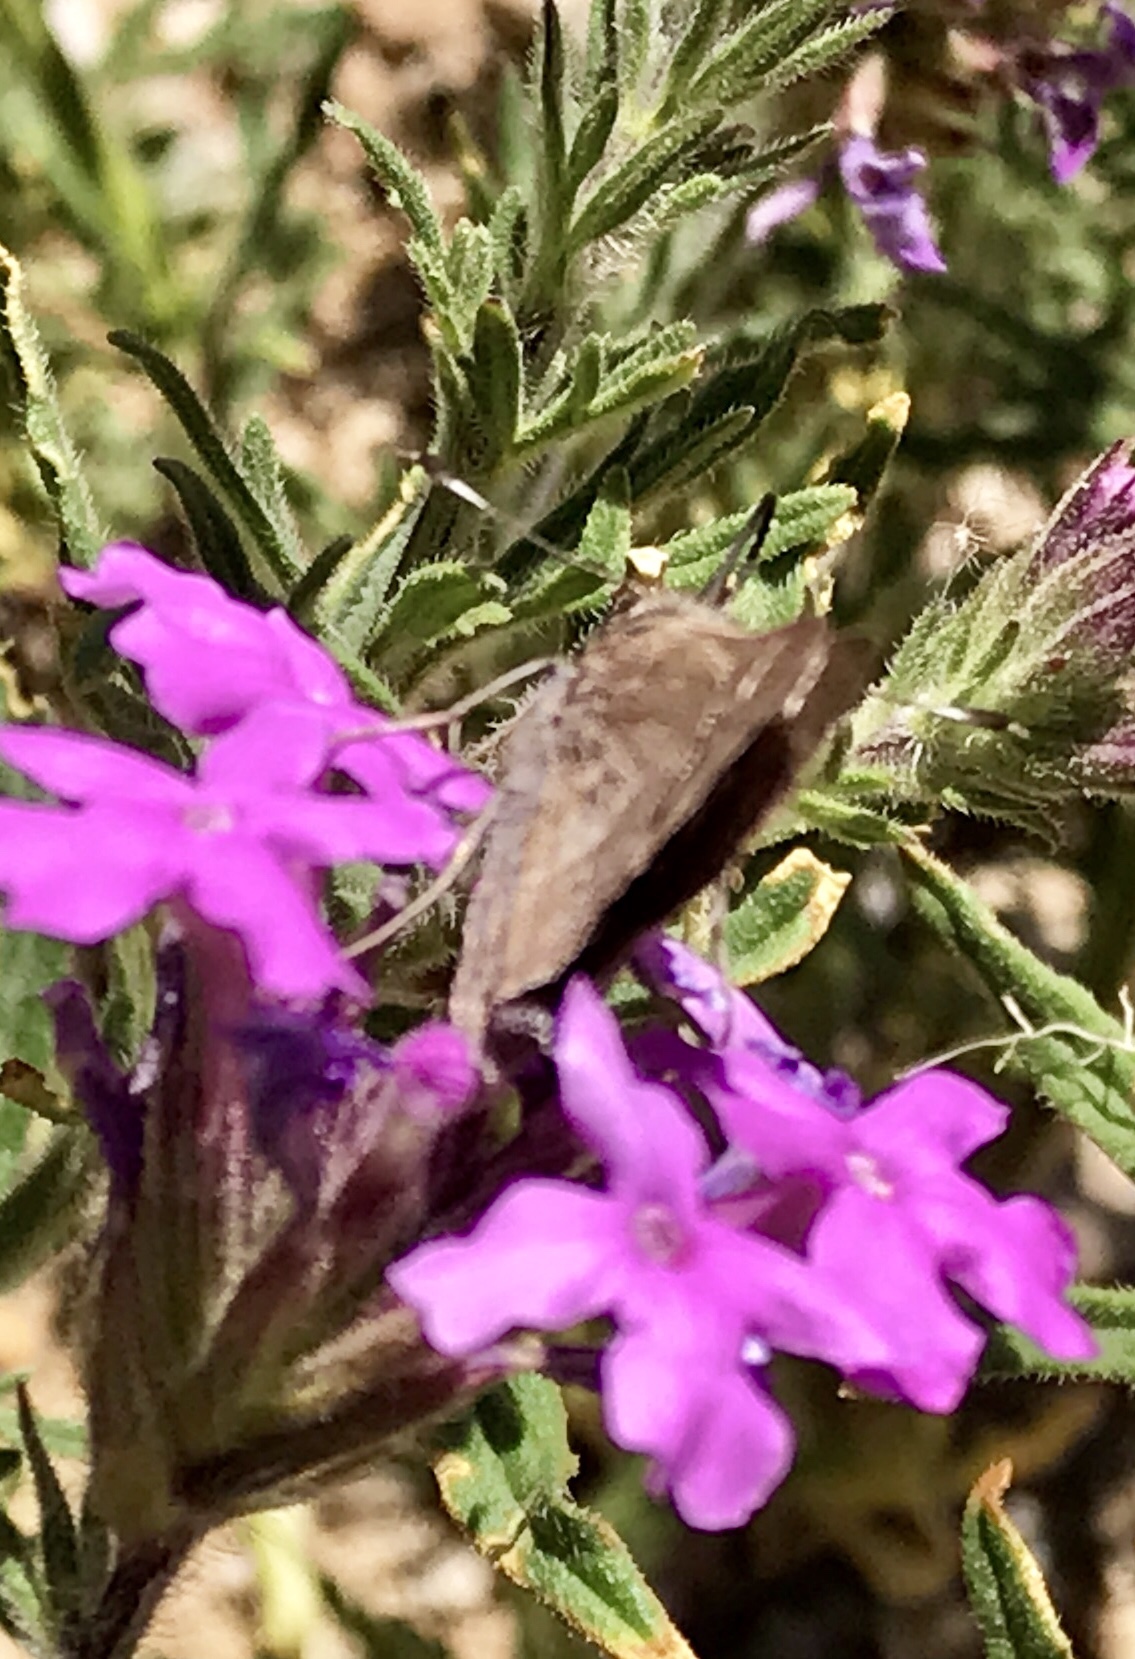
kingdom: Animalia
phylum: Arthropoda
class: Insecta
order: Lepidoptera
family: Hesperiidae
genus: Atrytonopsis
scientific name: Atrytonopsis vierecki
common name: Viereck's skipper
